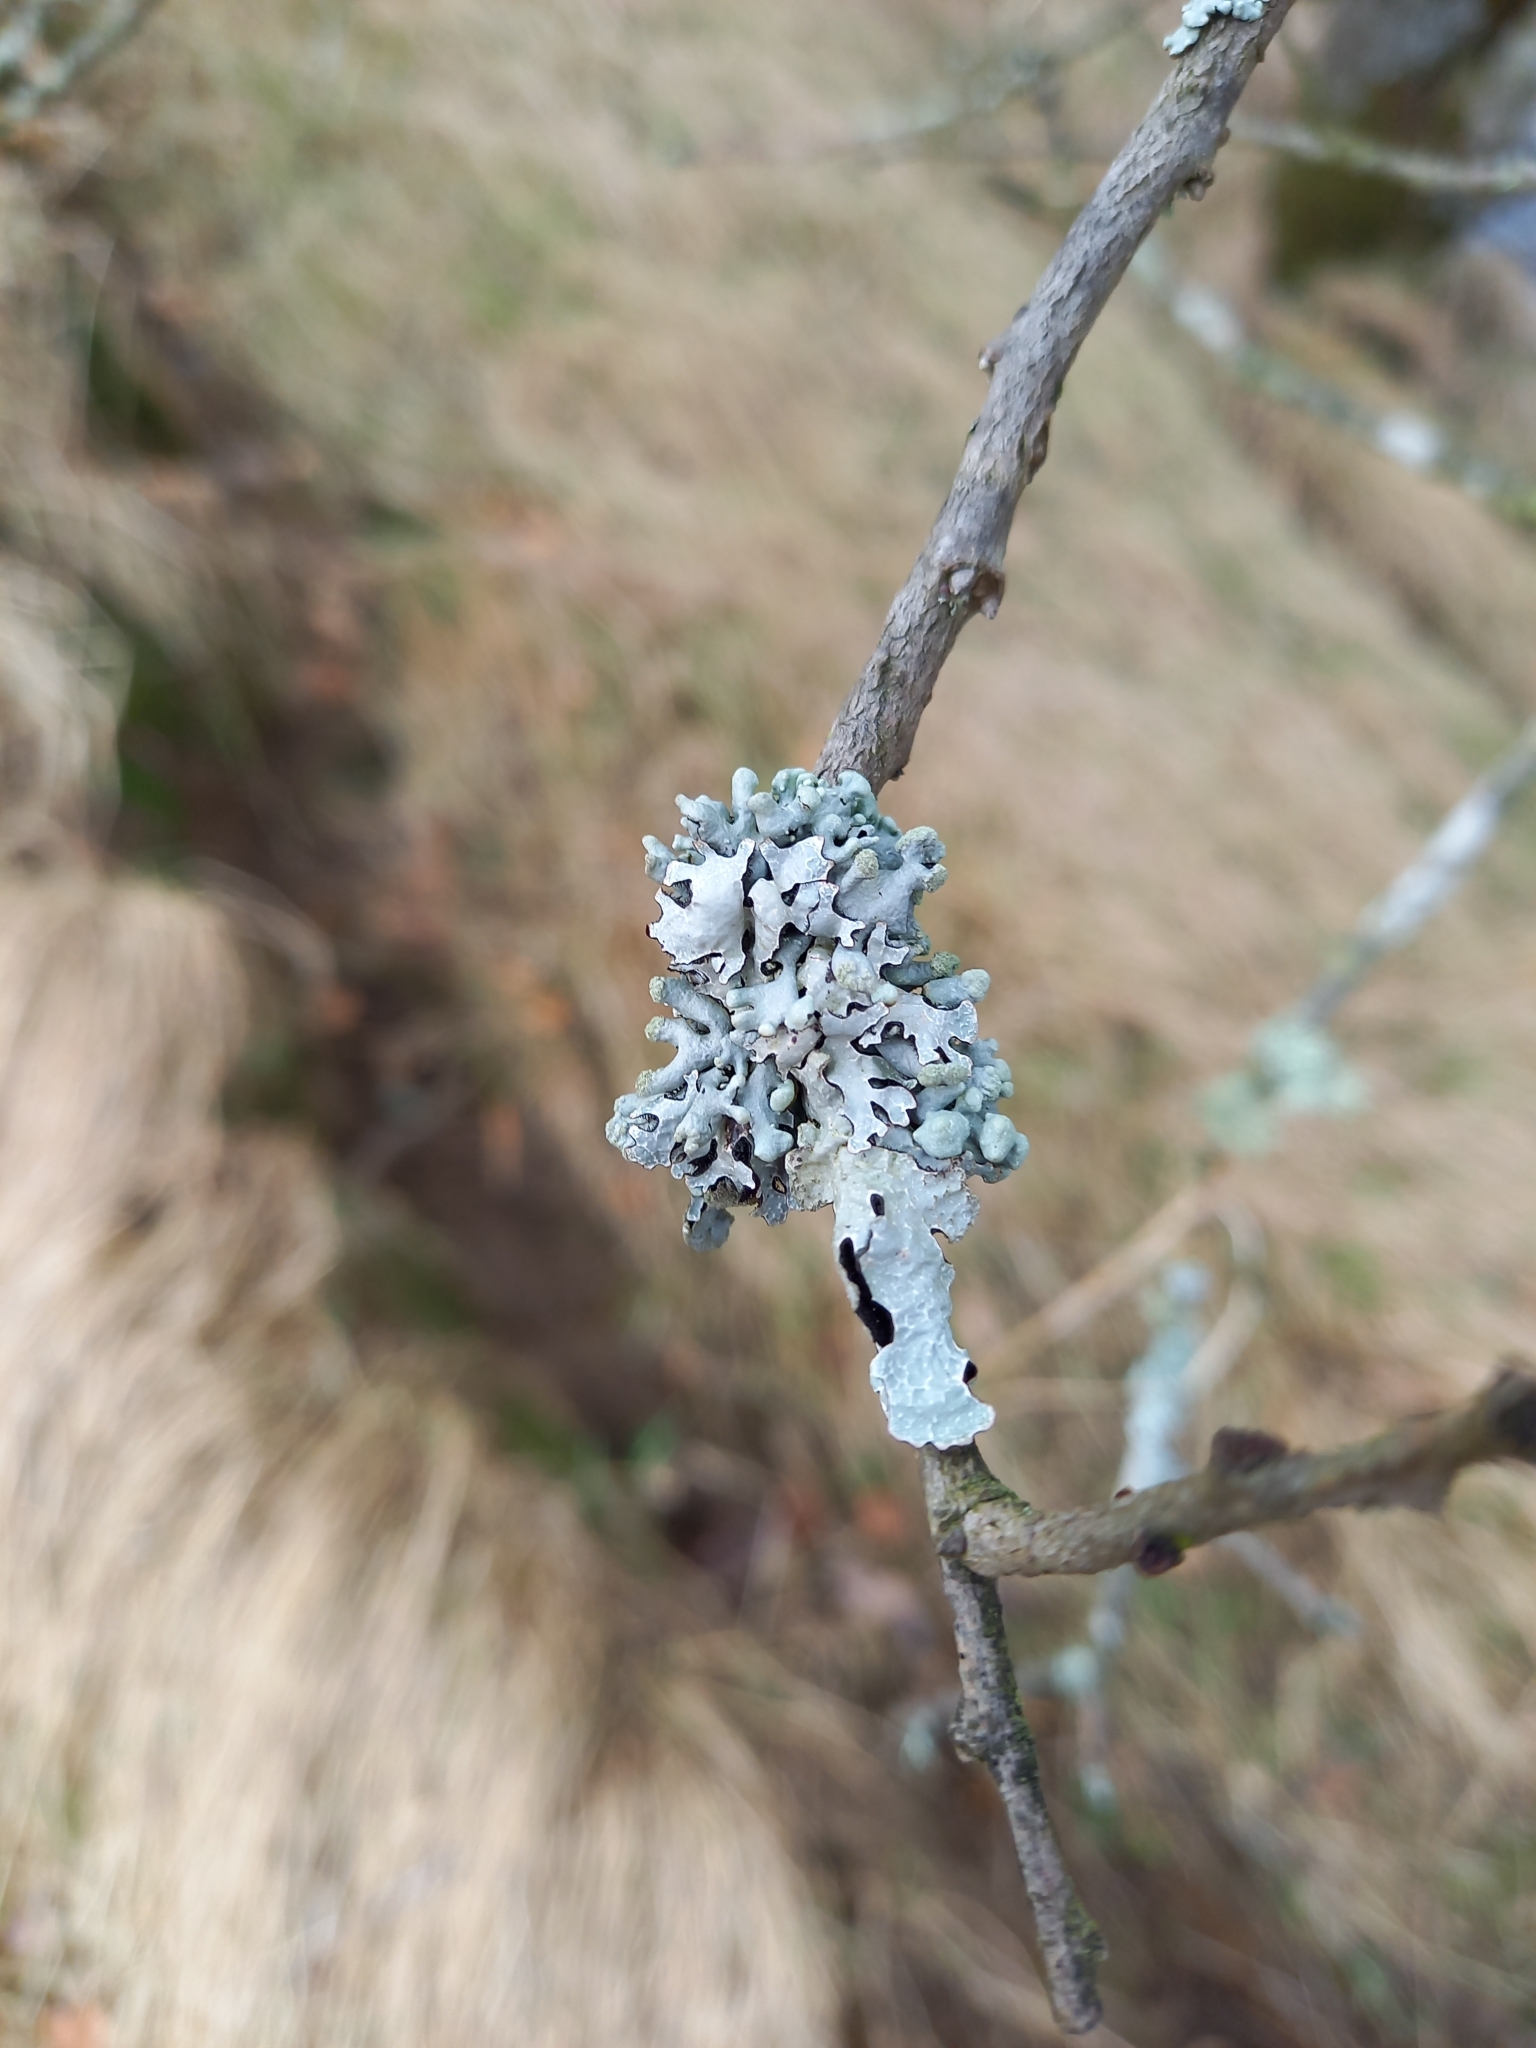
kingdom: Fungi
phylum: Ascomycota
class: Lecanoromycetes
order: Lecanorales
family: Parmeliaceae
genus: Hypogymnia
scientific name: Hypogymnia tubulosa
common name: Powder-headed tube lichen
